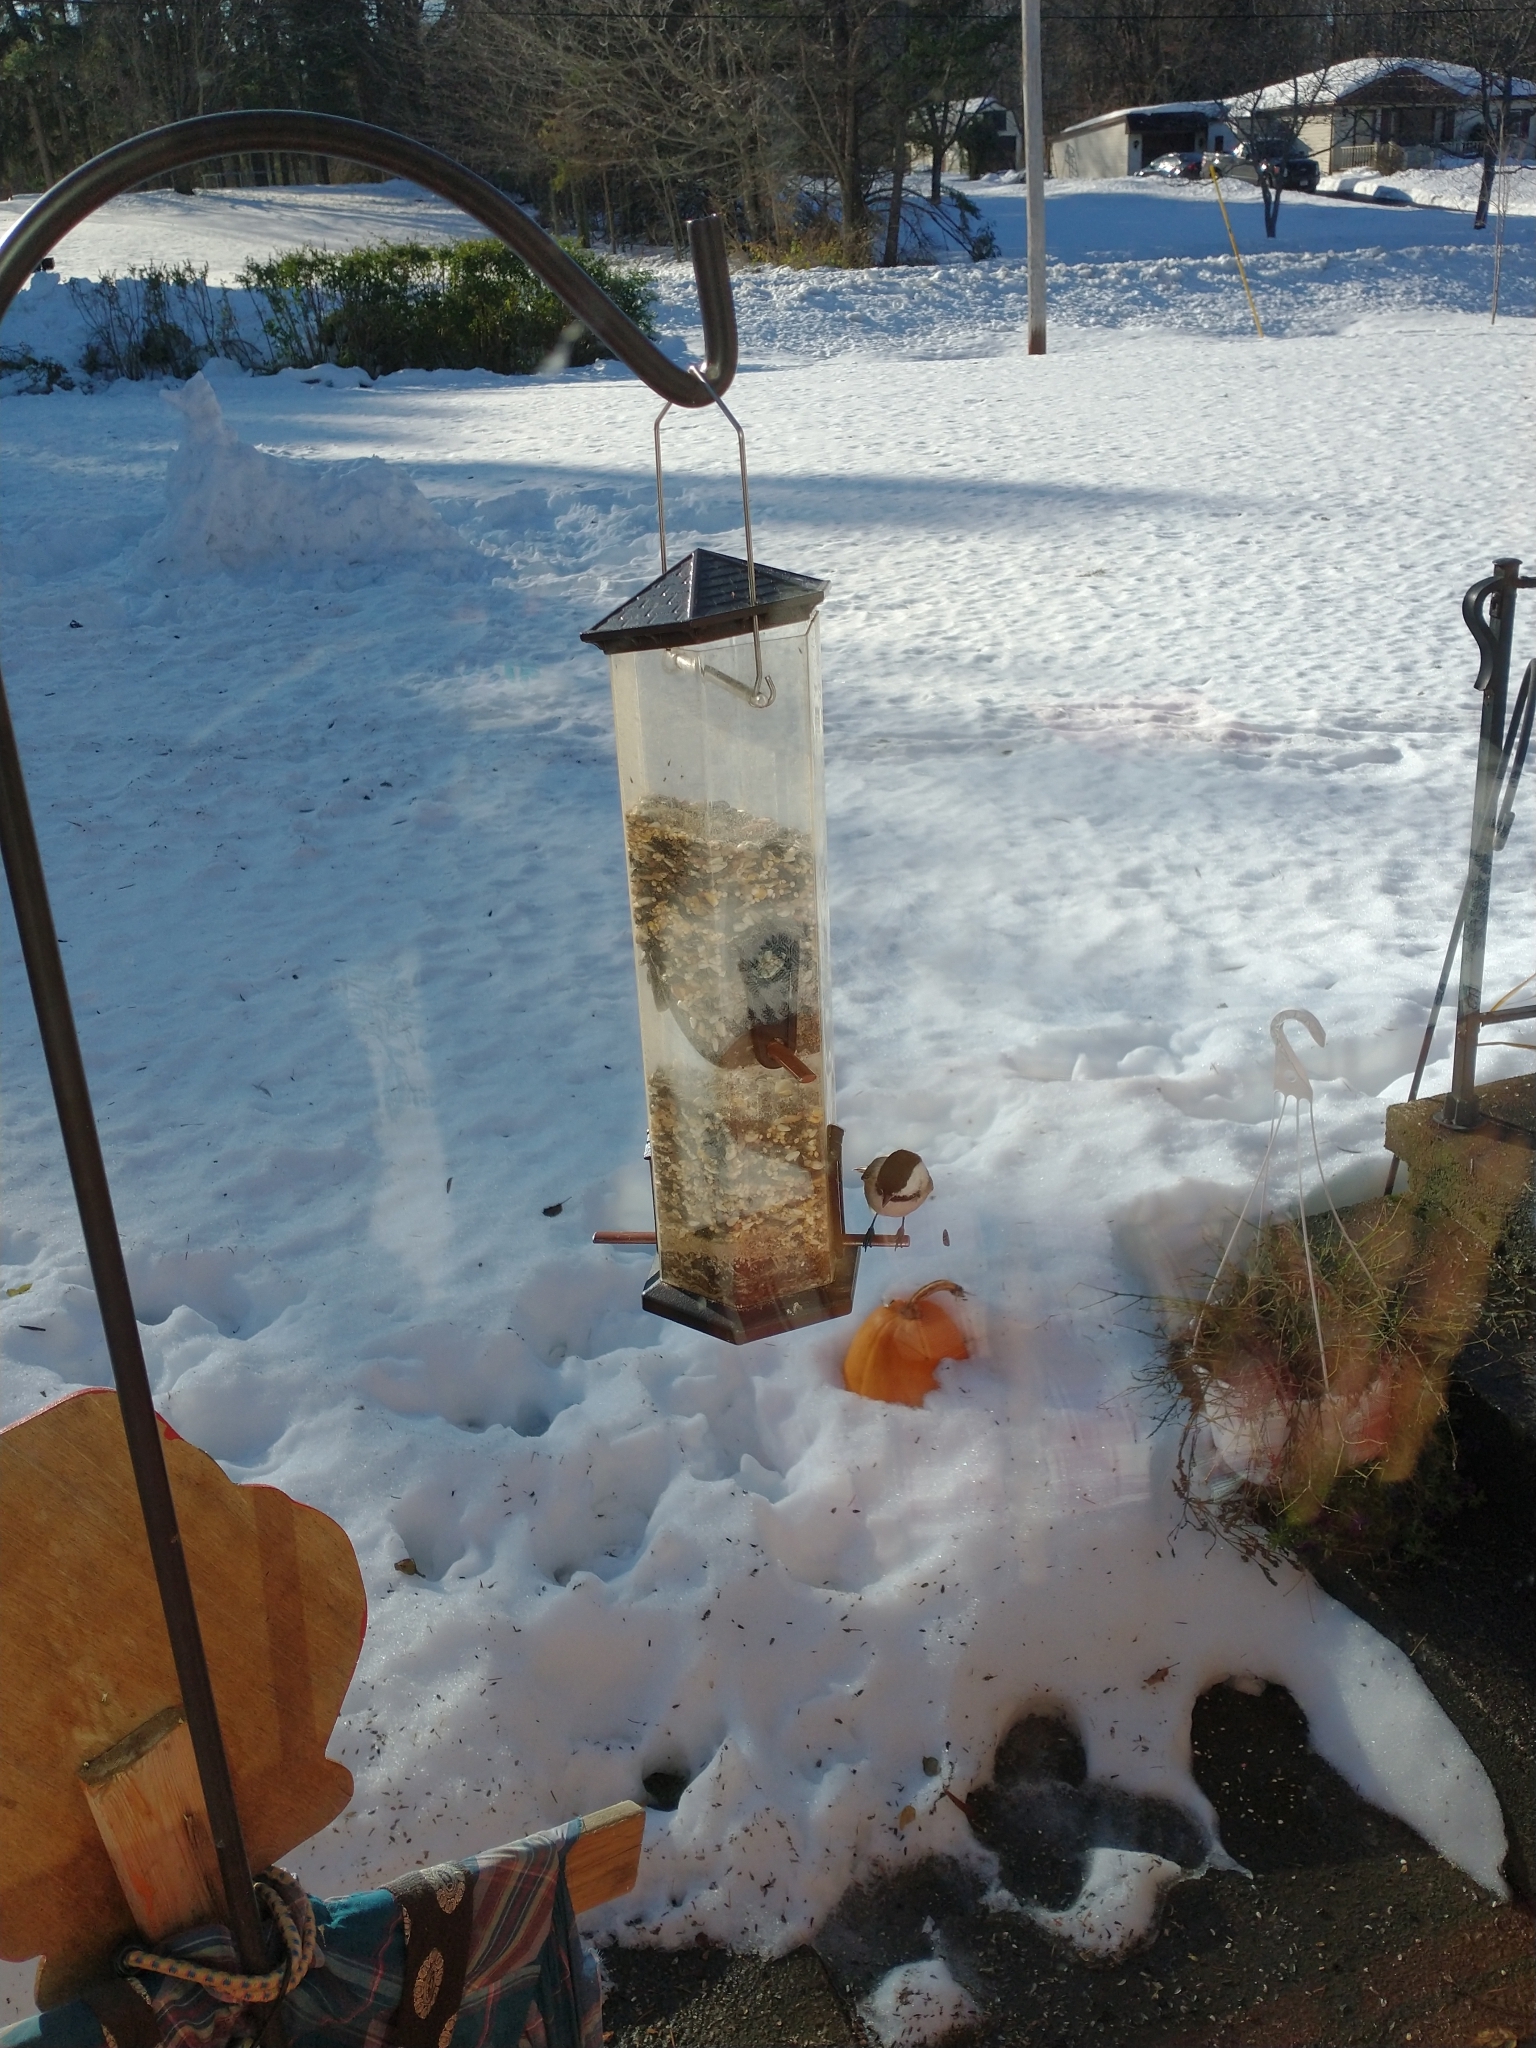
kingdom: Animalia
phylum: Chordata
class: Aves
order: Passeriformes
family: Paridae
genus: Poecile
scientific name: Poecile atricapillus
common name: Black-capped chickadee
